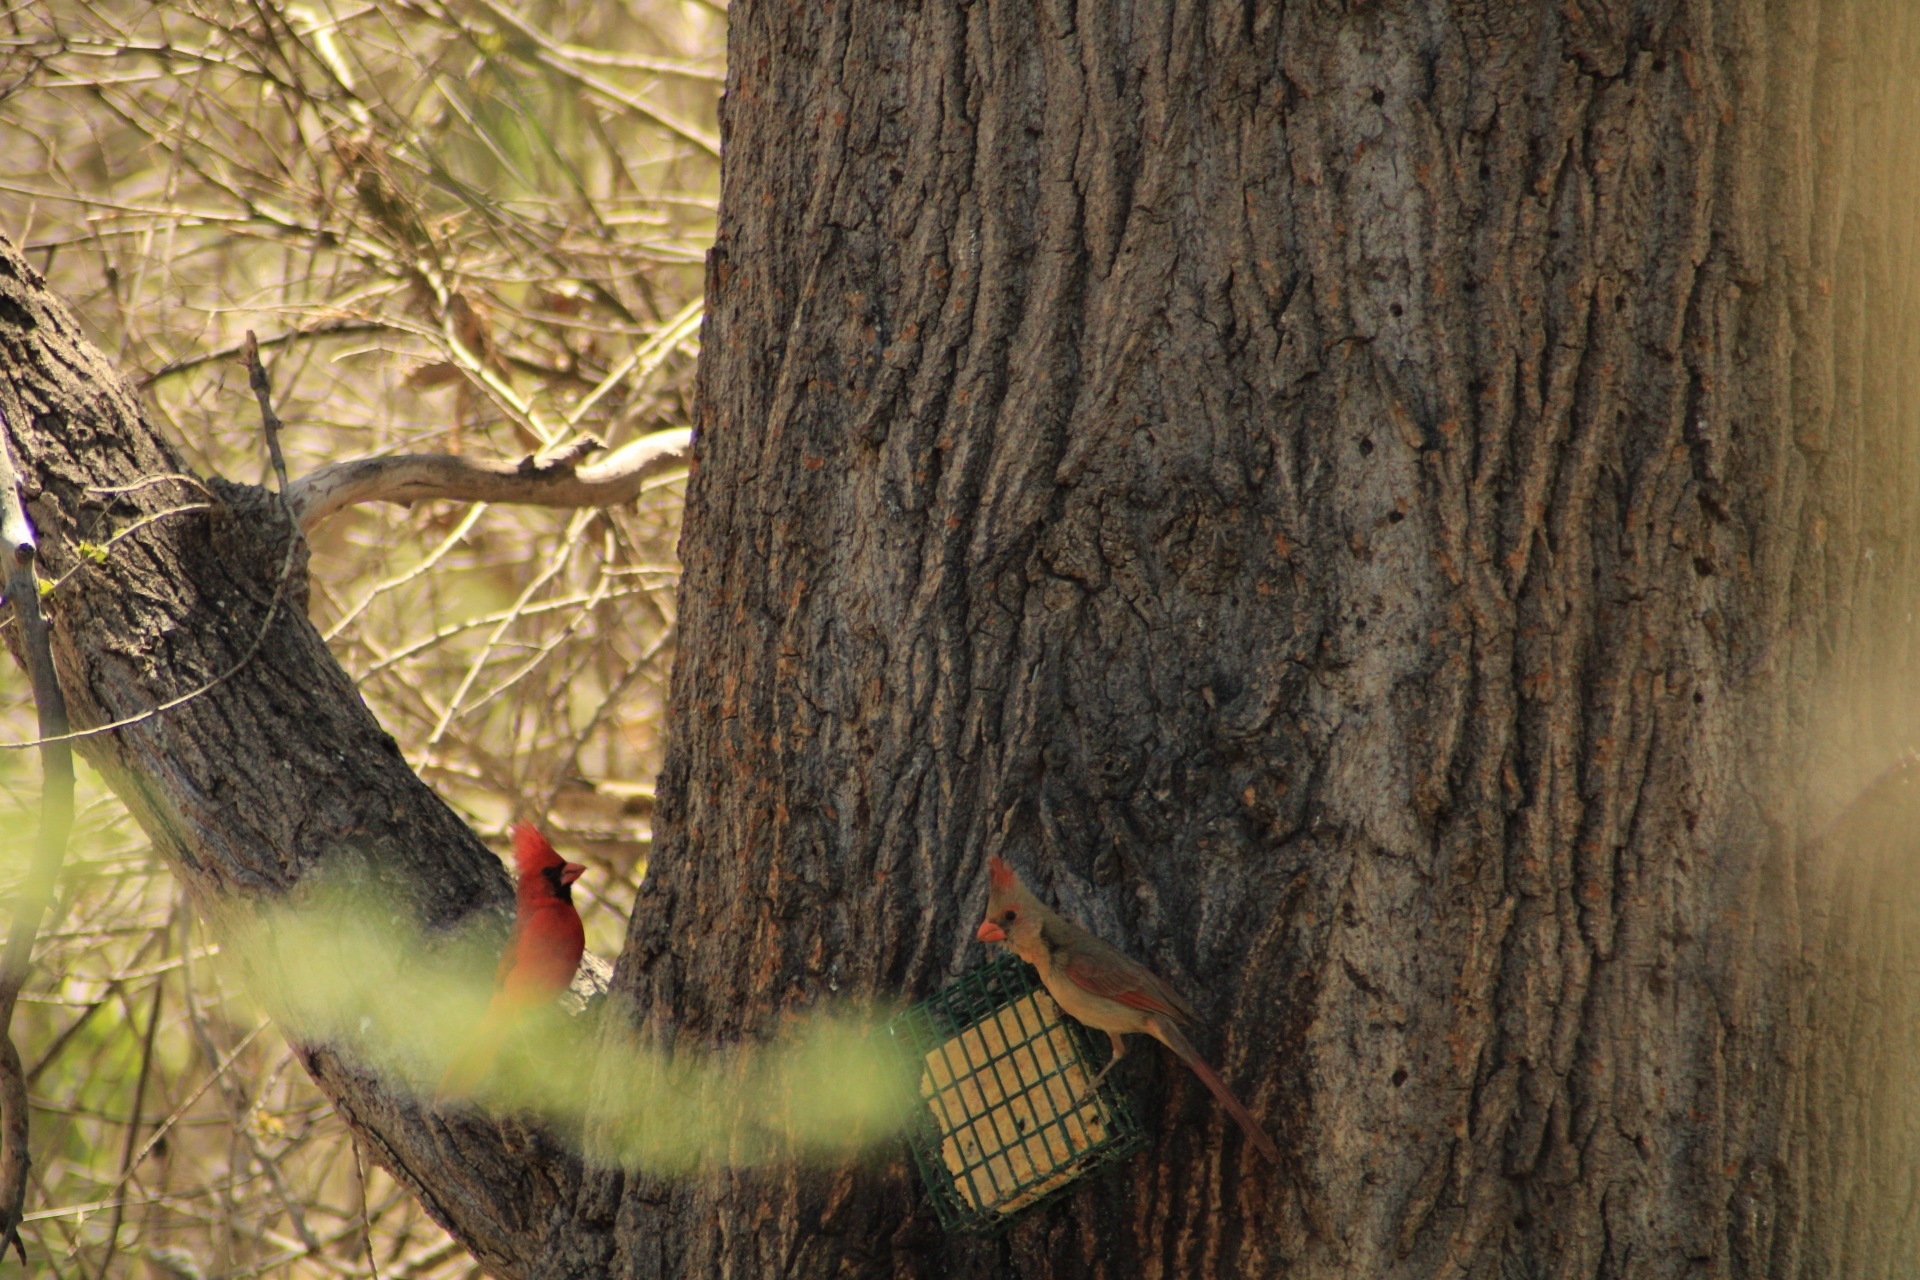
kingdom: Animalia
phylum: Chordata
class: Aves
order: Passeriformes
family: Cardinalidae
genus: Cardinalis
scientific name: Cardinalis cardinalis
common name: Northern cardinal
